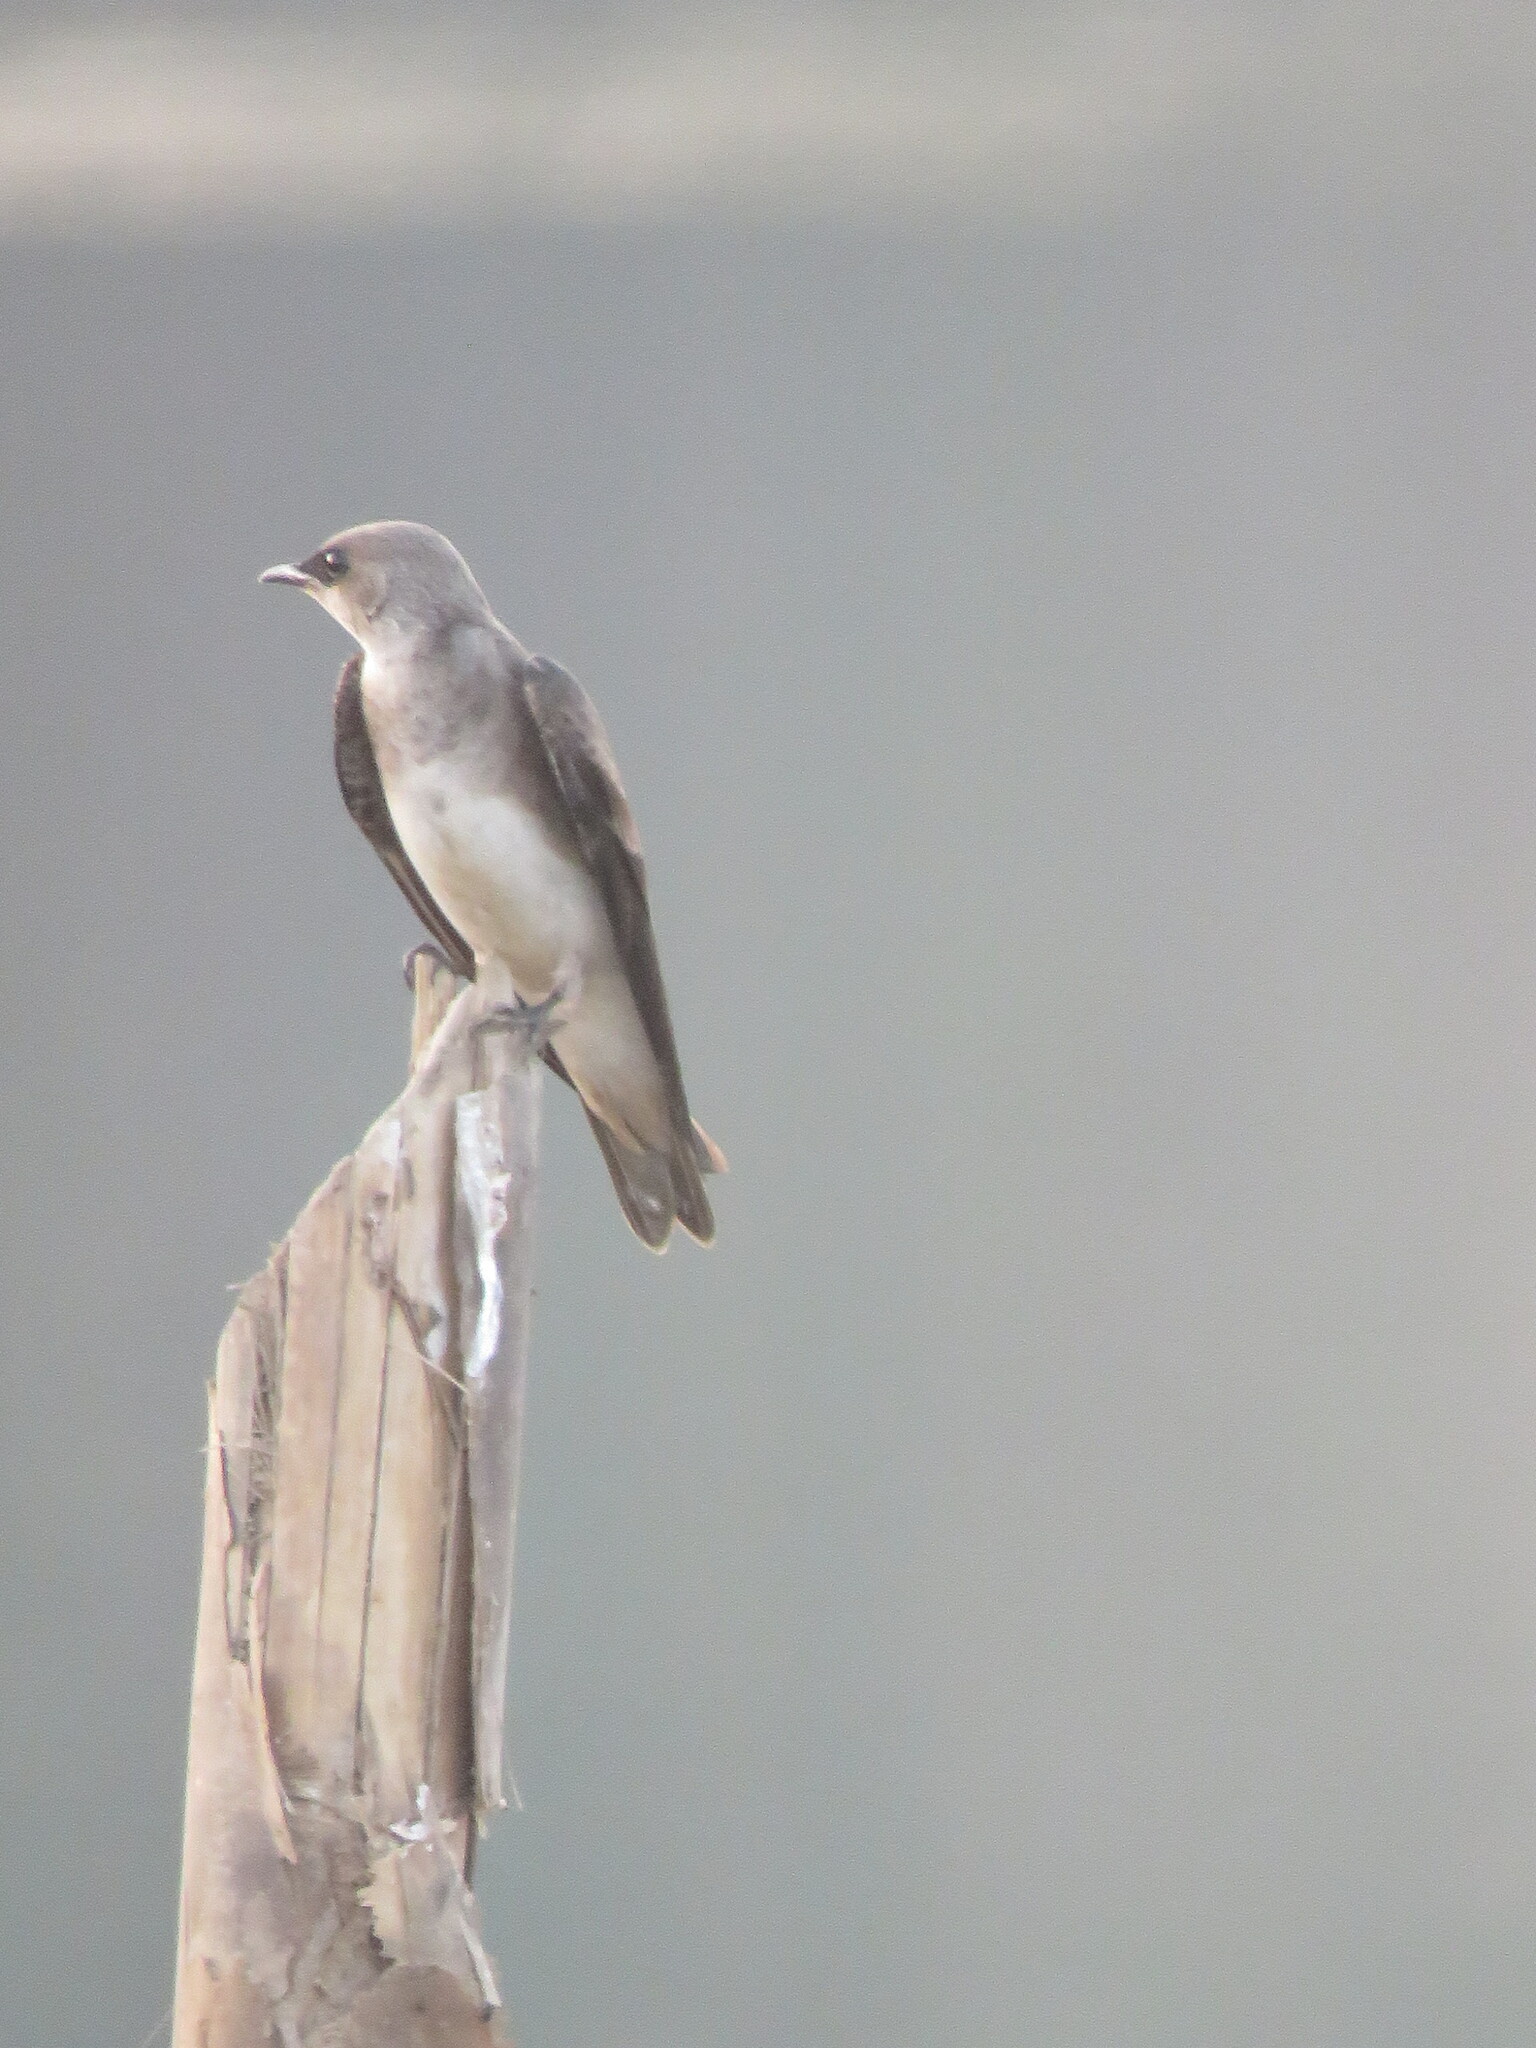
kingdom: Animalia
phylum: Chordata
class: Aves
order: Passeriformes
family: Hirundinidae
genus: Progne
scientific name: Progne tapera
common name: Brown-chested martin
